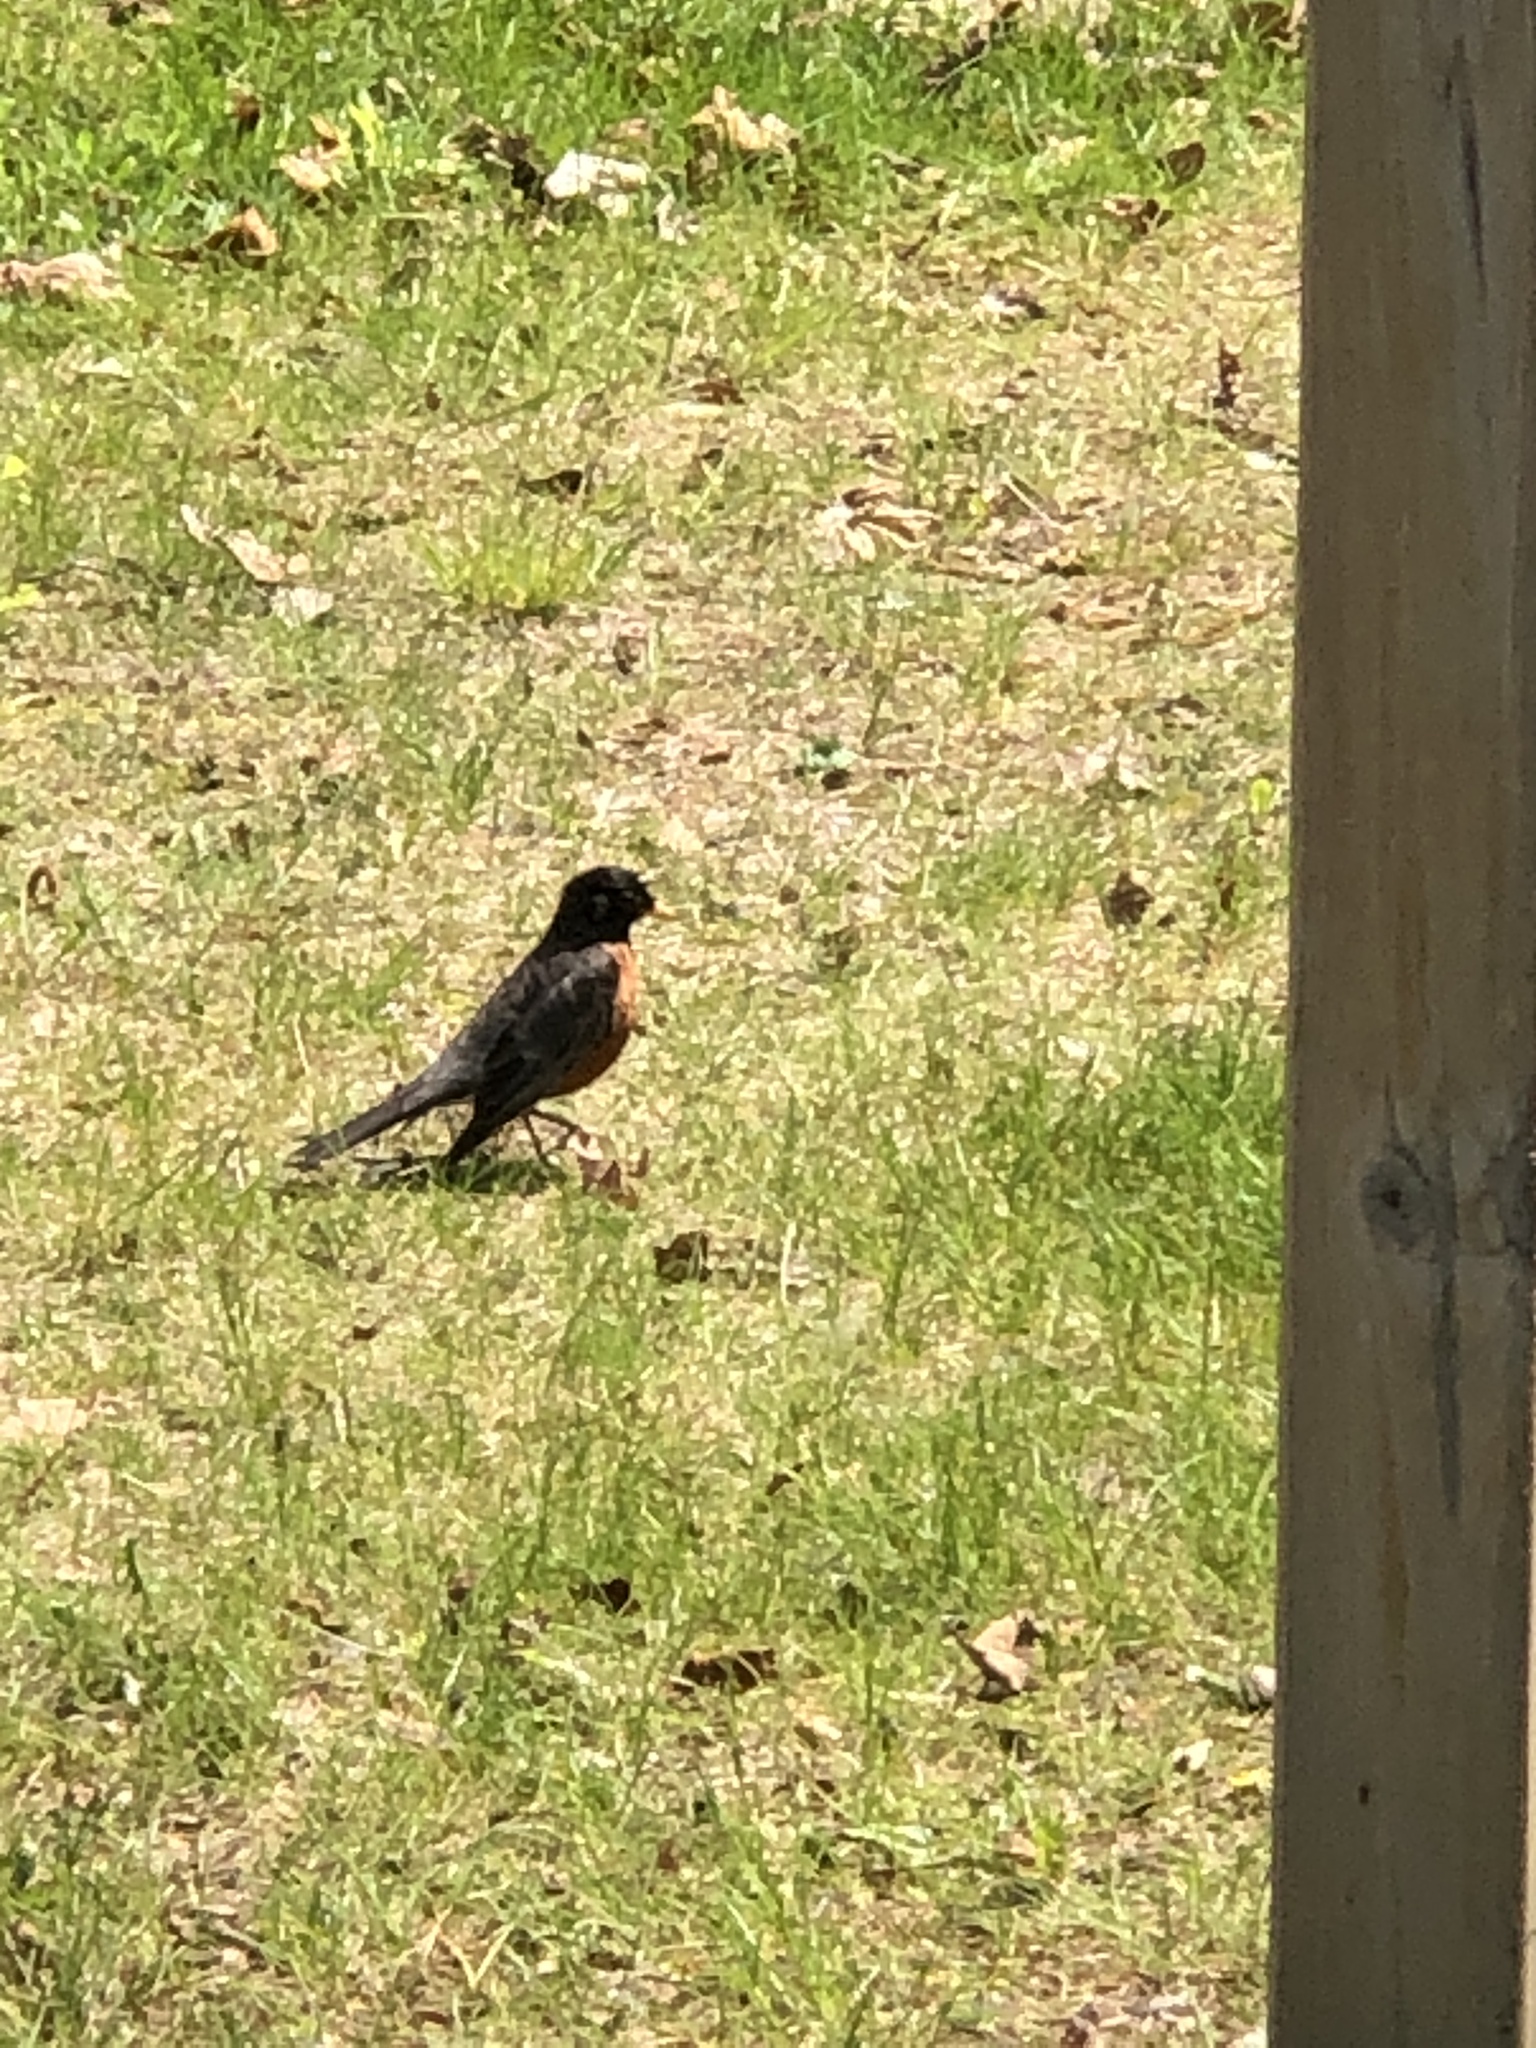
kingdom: Animalia
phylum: Chordata
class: Aves
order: Passeriformes
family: Turdidae
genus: Turdus
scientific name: Turdus migratorius
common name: American robin
